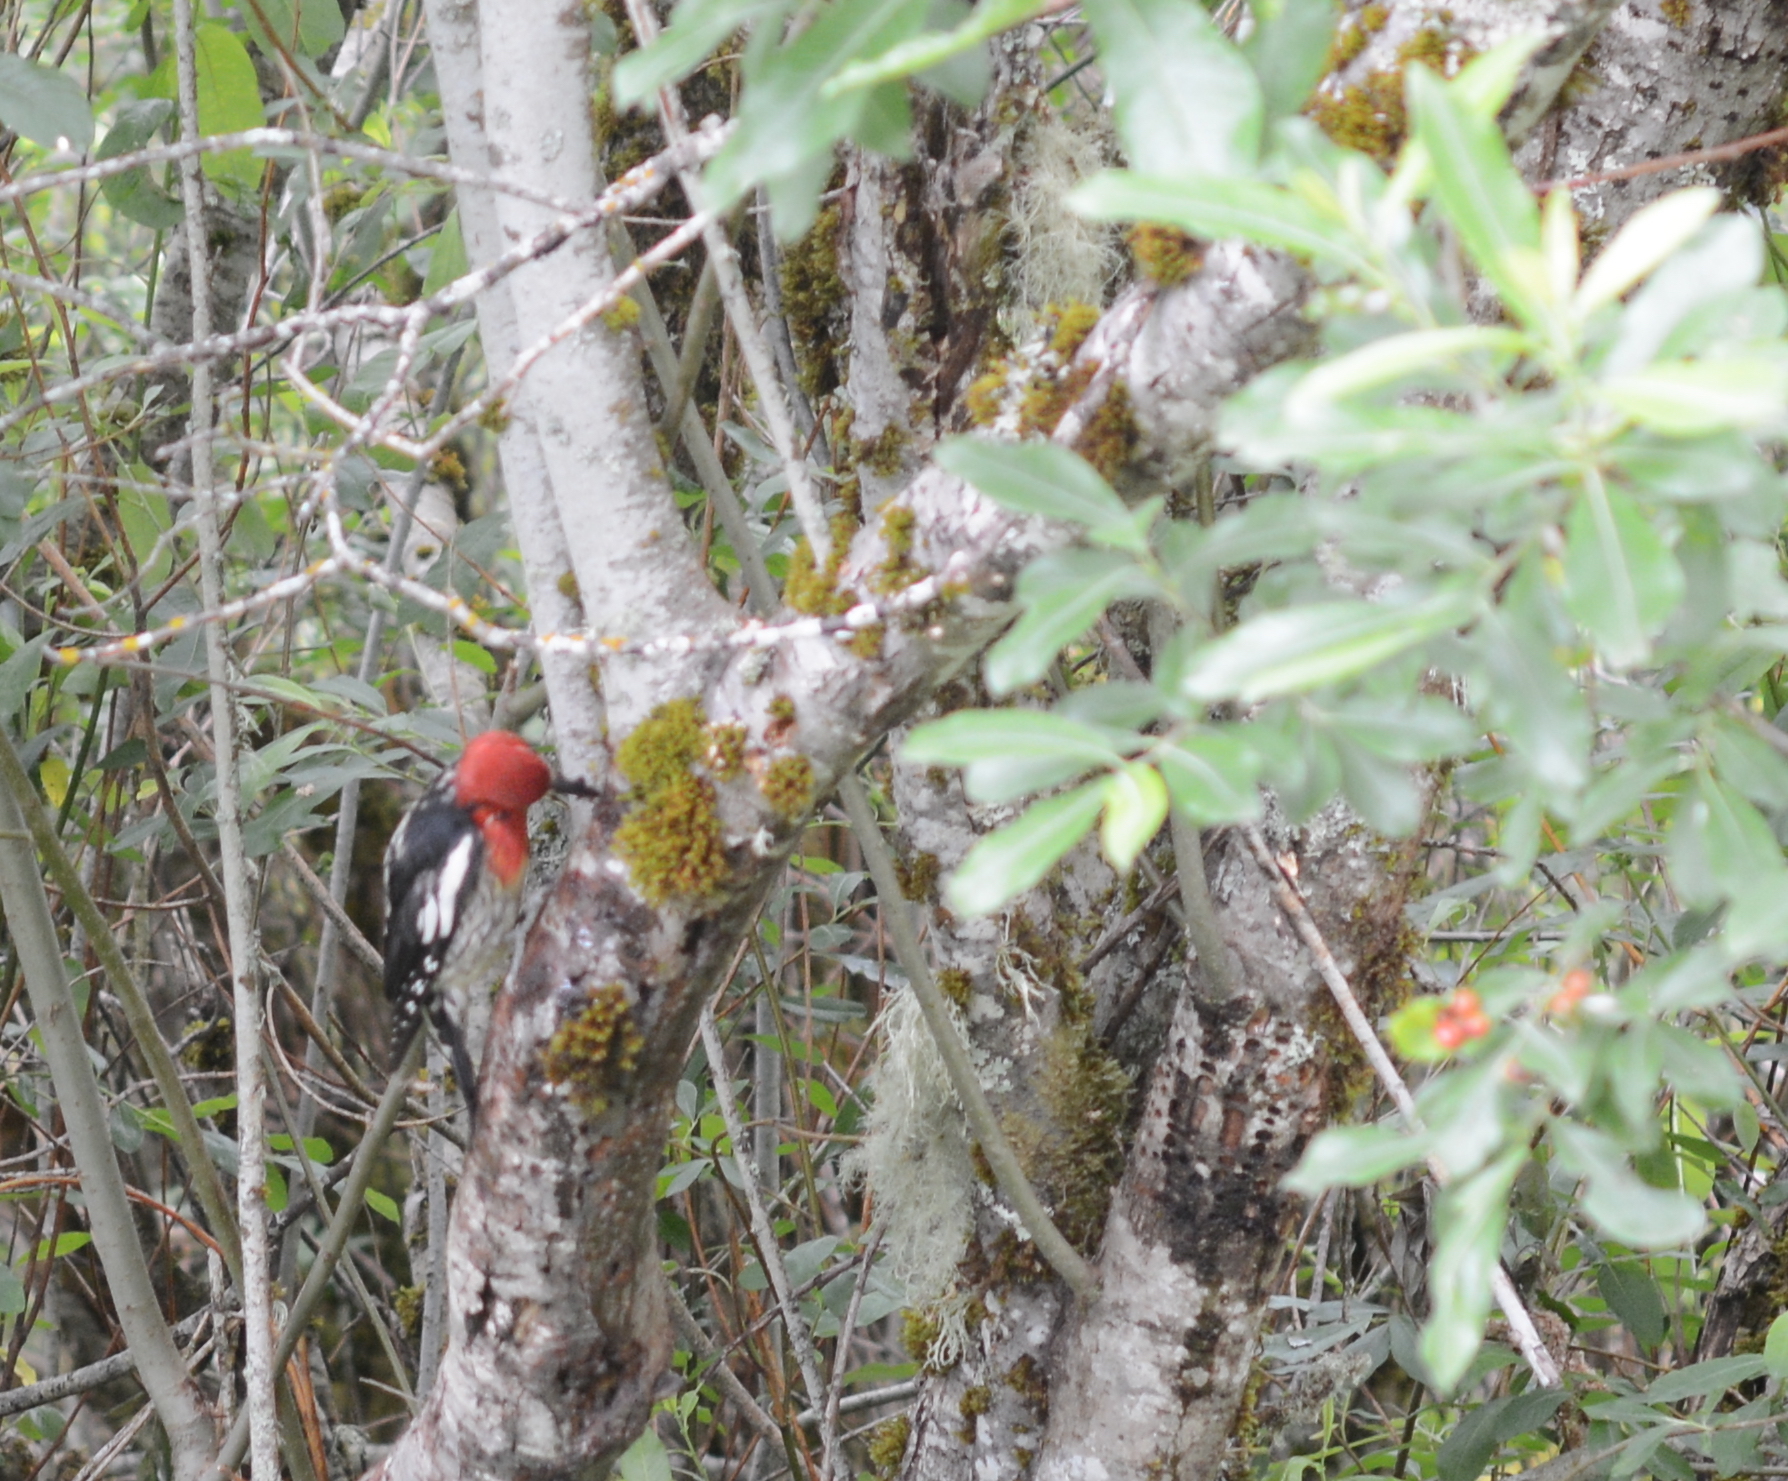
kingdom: Animalia
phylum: Chordata
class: Aves
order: Piciformes
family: Picidae
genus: Sphyrapicus
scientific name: Sphyrapicus ruber
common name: Red-breasted sapsucker
